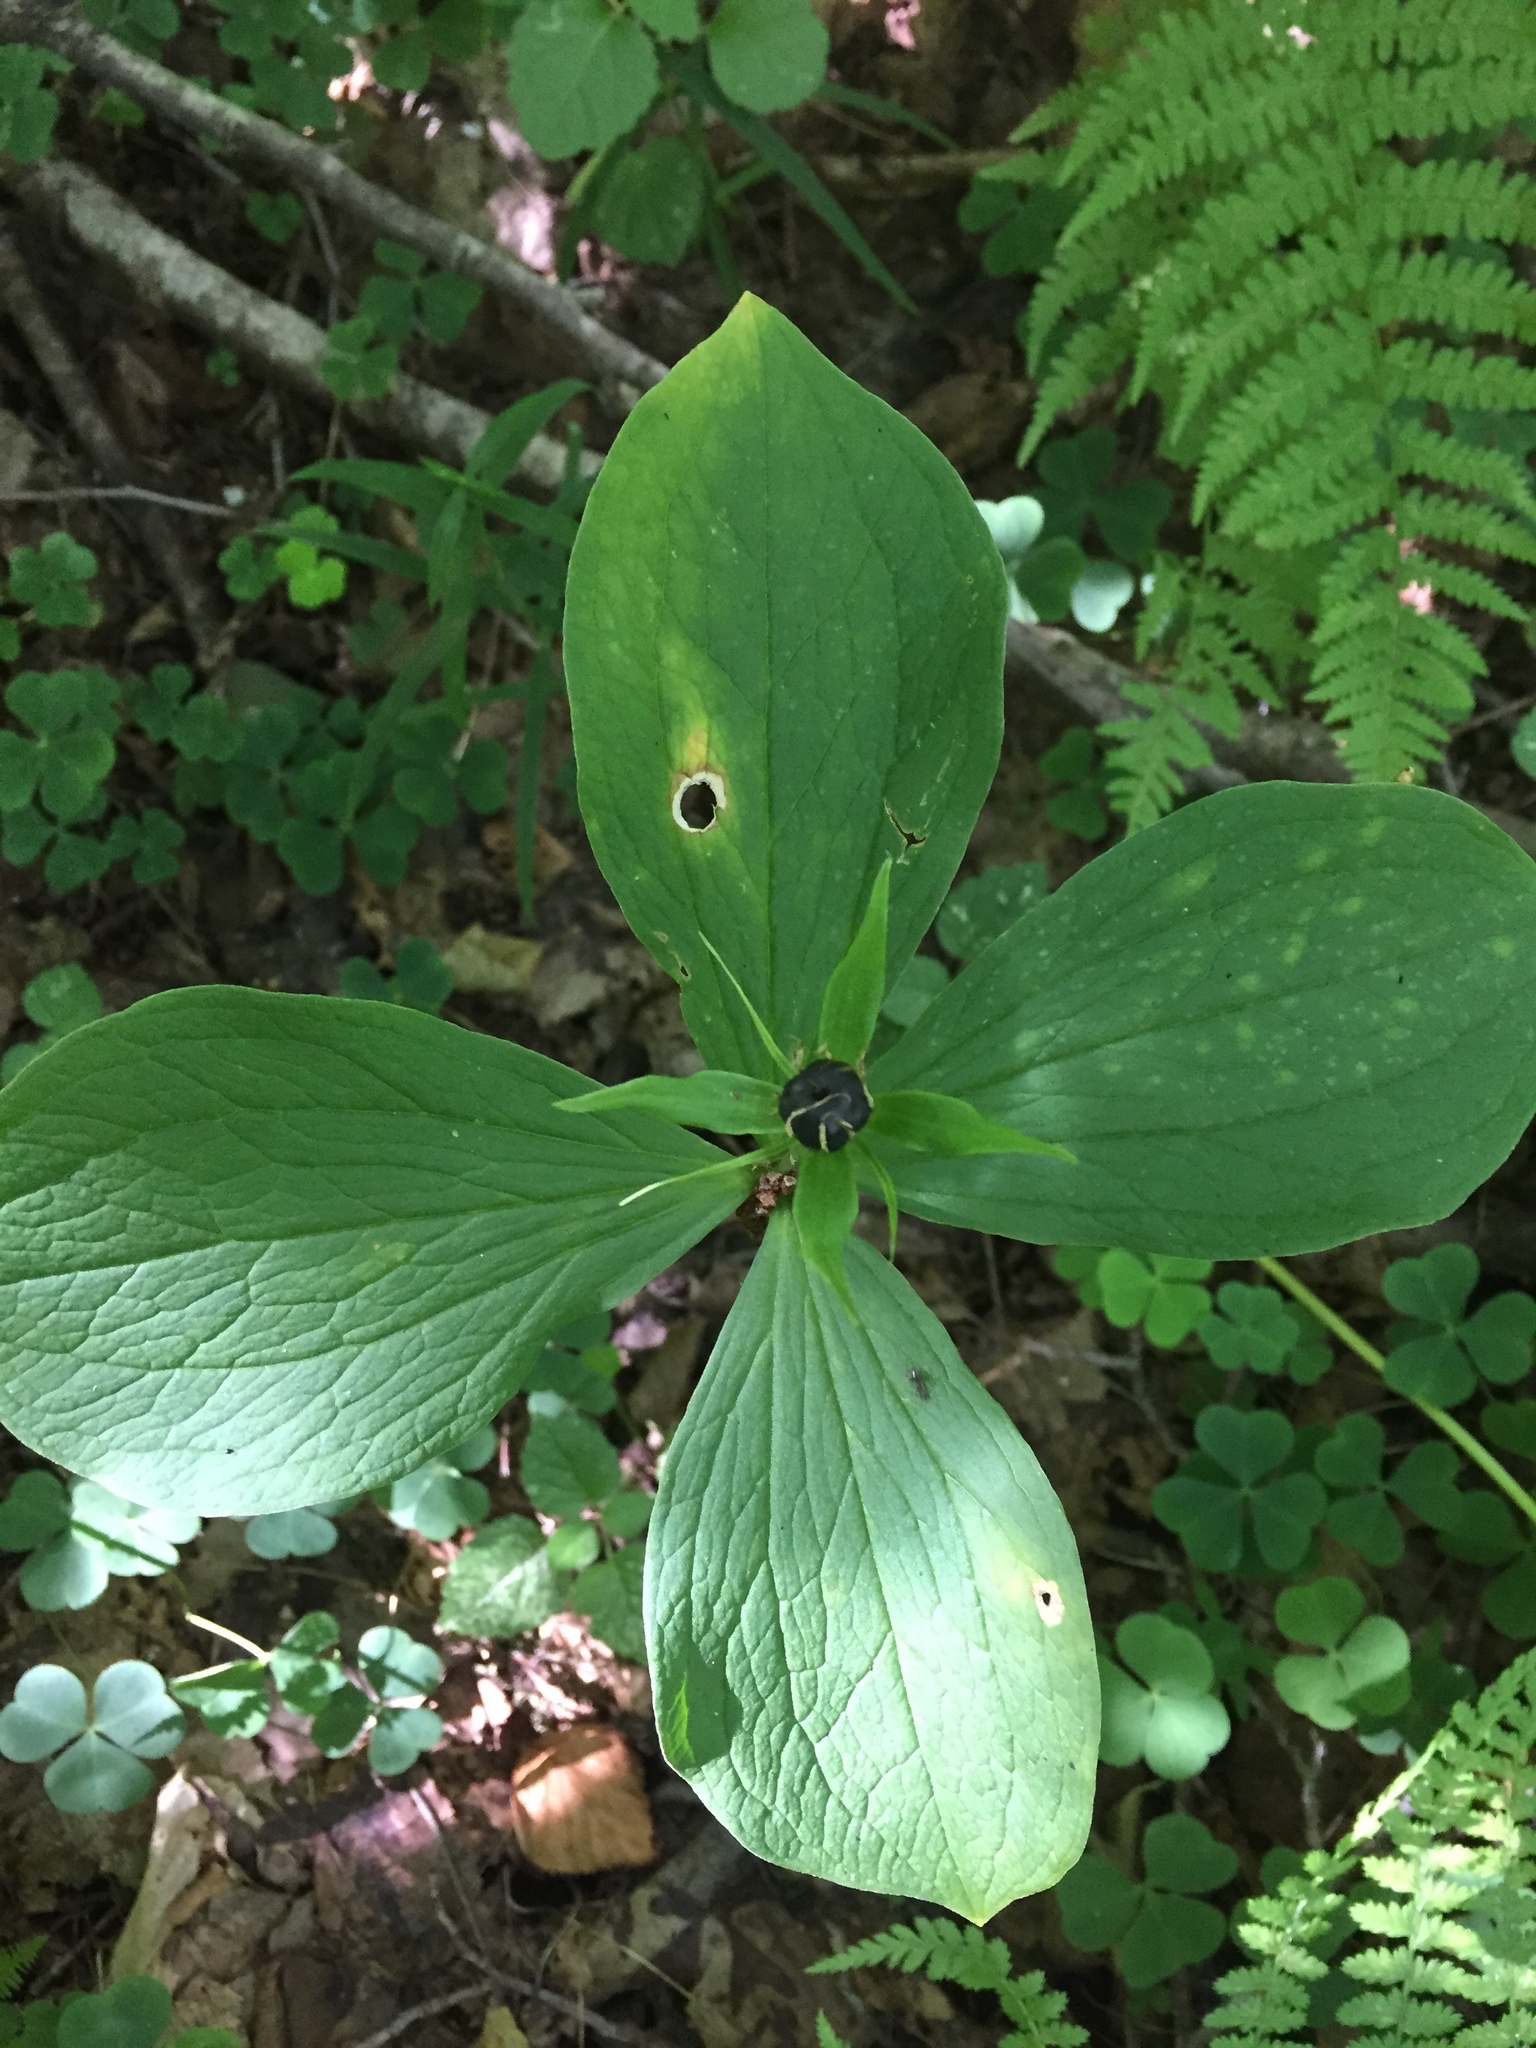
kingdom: Plantae
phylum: Tracheophyta
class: Liliopsida
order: Liliales
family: Melanthiaceae
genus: Paris
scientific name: Paris quadrifolia
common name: Herb-paris
